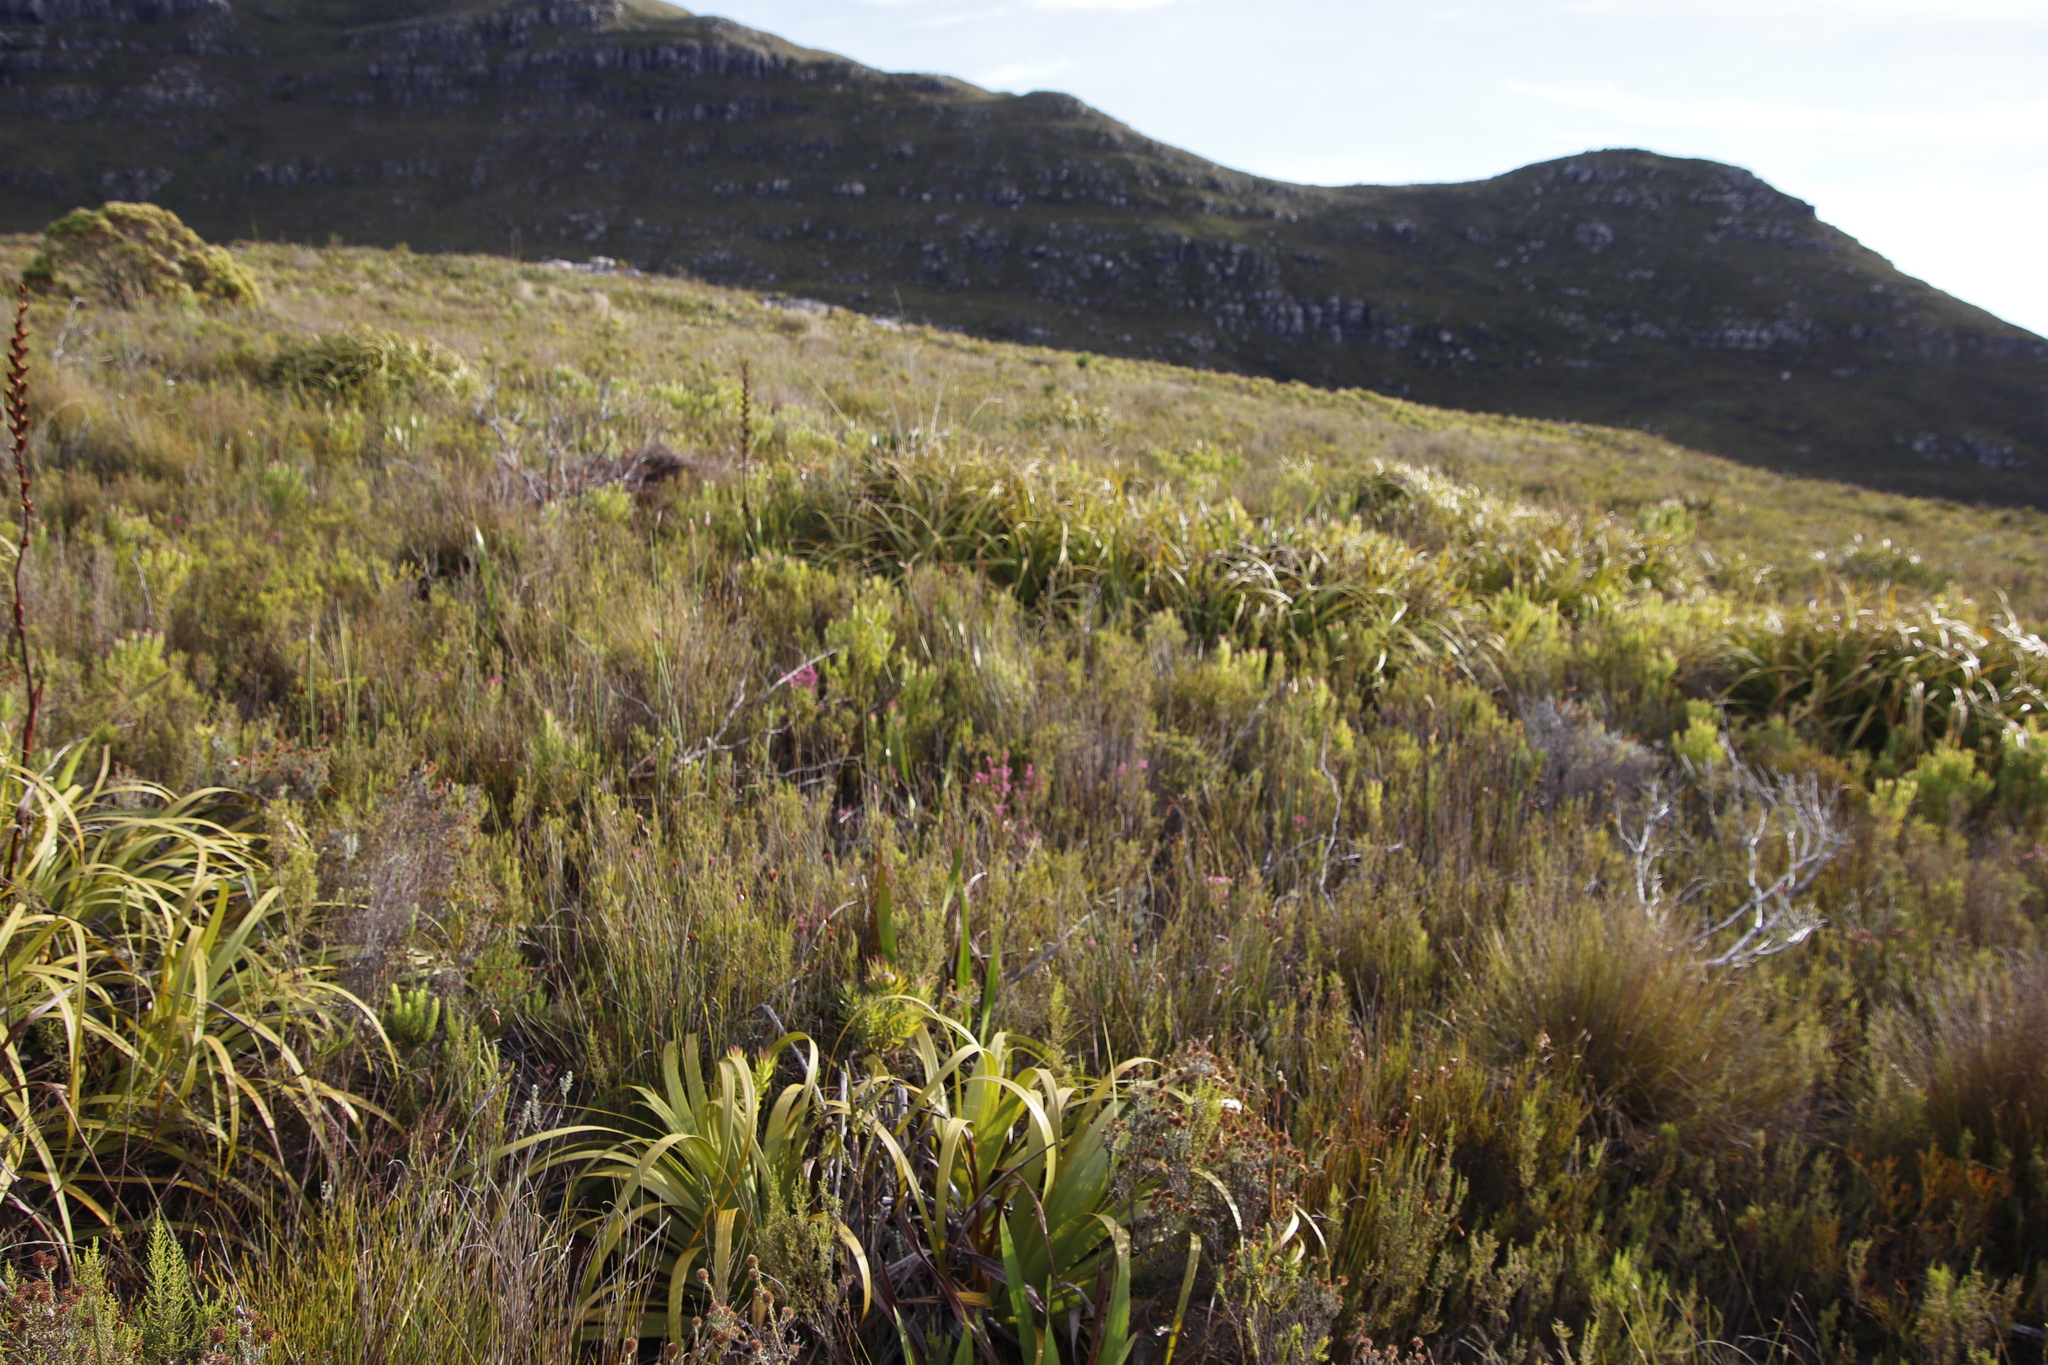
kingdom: Plantae
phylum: Tracheophyta
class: Liliopsida
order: Poales
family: Cyperaceae
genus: Tetraria
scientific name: Tetraria thermalis
